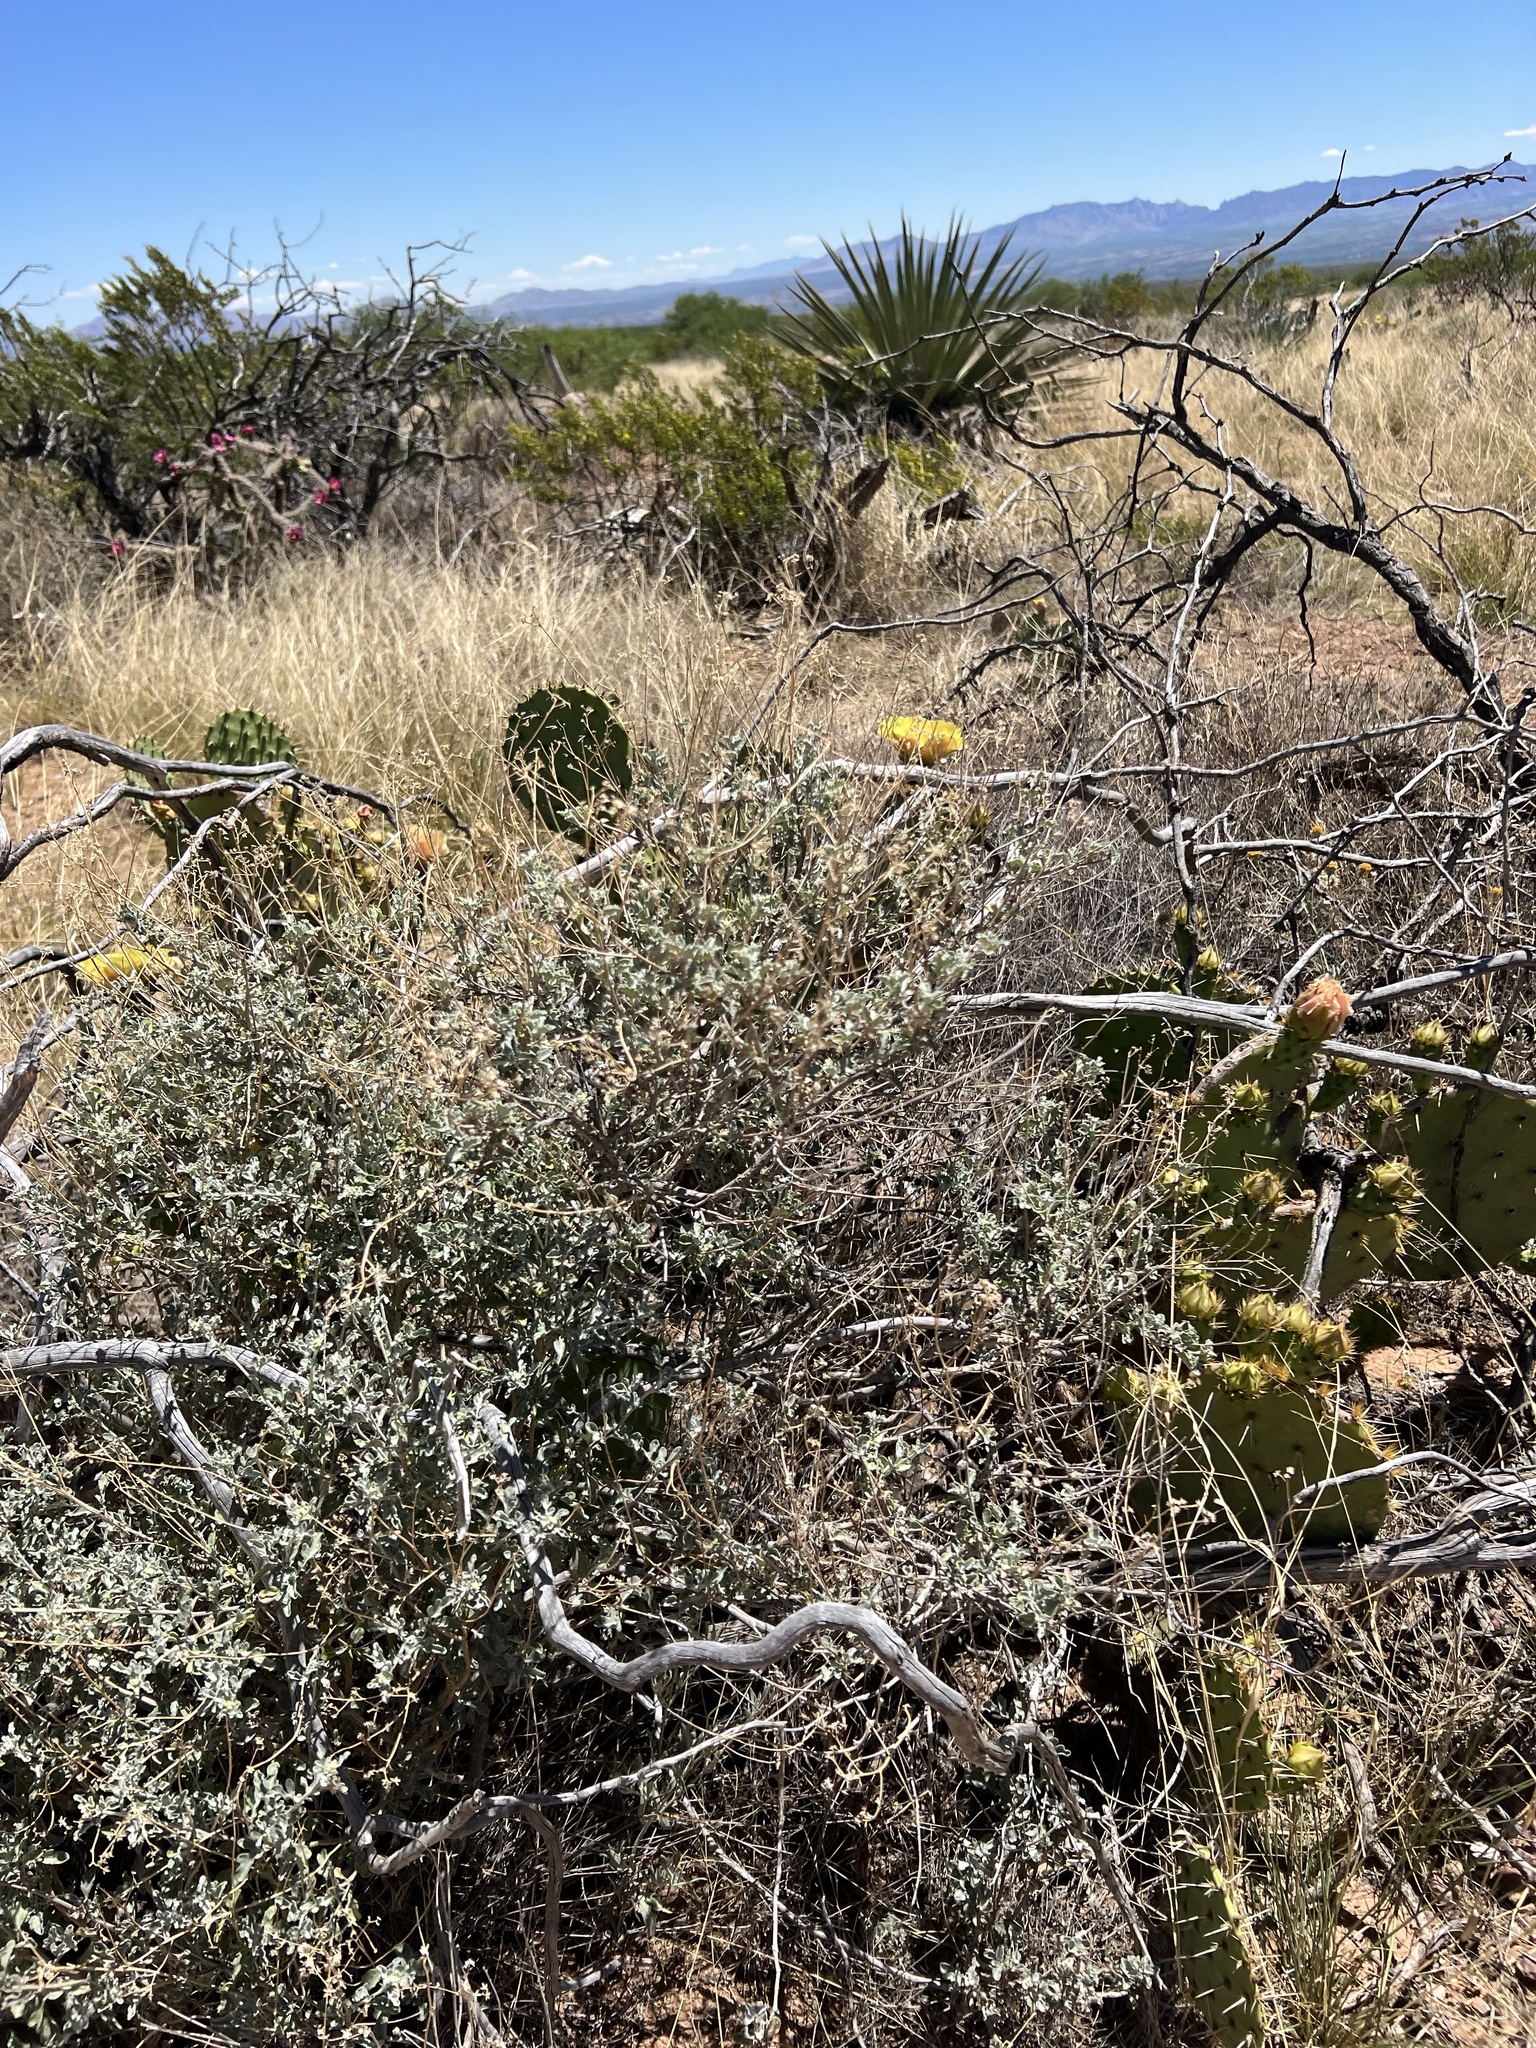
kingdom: Plantae
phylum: Tracheophyta
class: Magnoliopsida
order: Asterales
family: Asteraceae
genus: Parthenium
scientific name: Parthenium incanum
